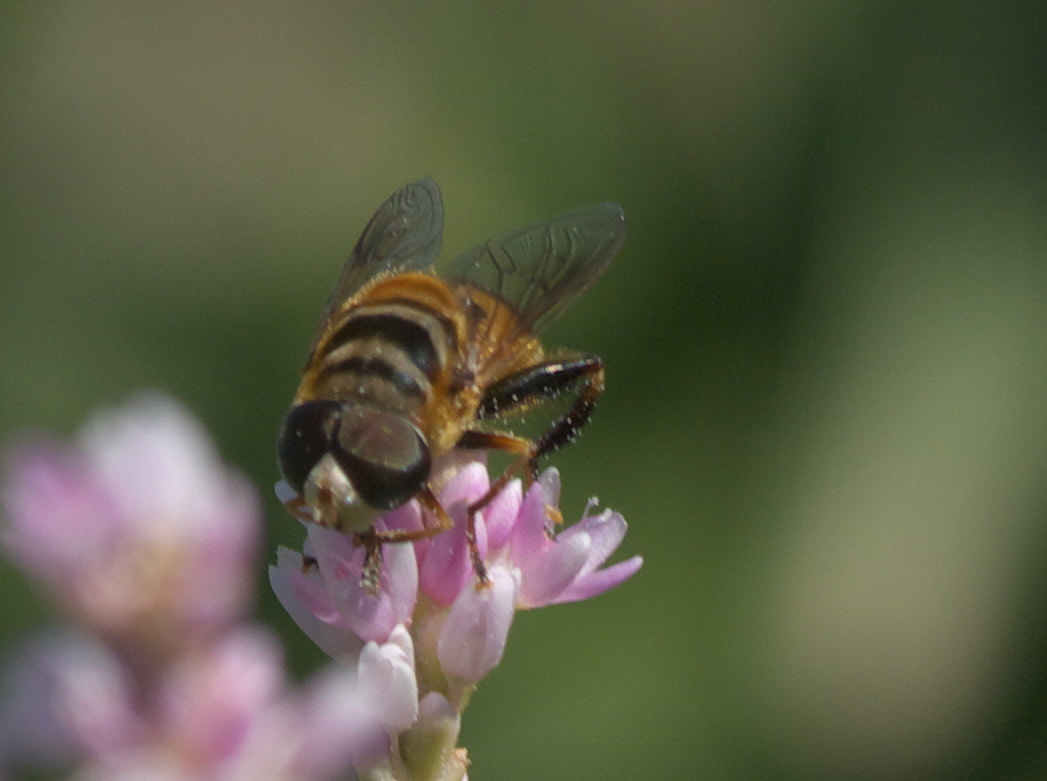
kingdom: Animalia
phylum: Arthropoda
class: Insecta
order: Diptera
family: Syrphidae
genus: Palpada
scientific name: Palpada vinetorum
